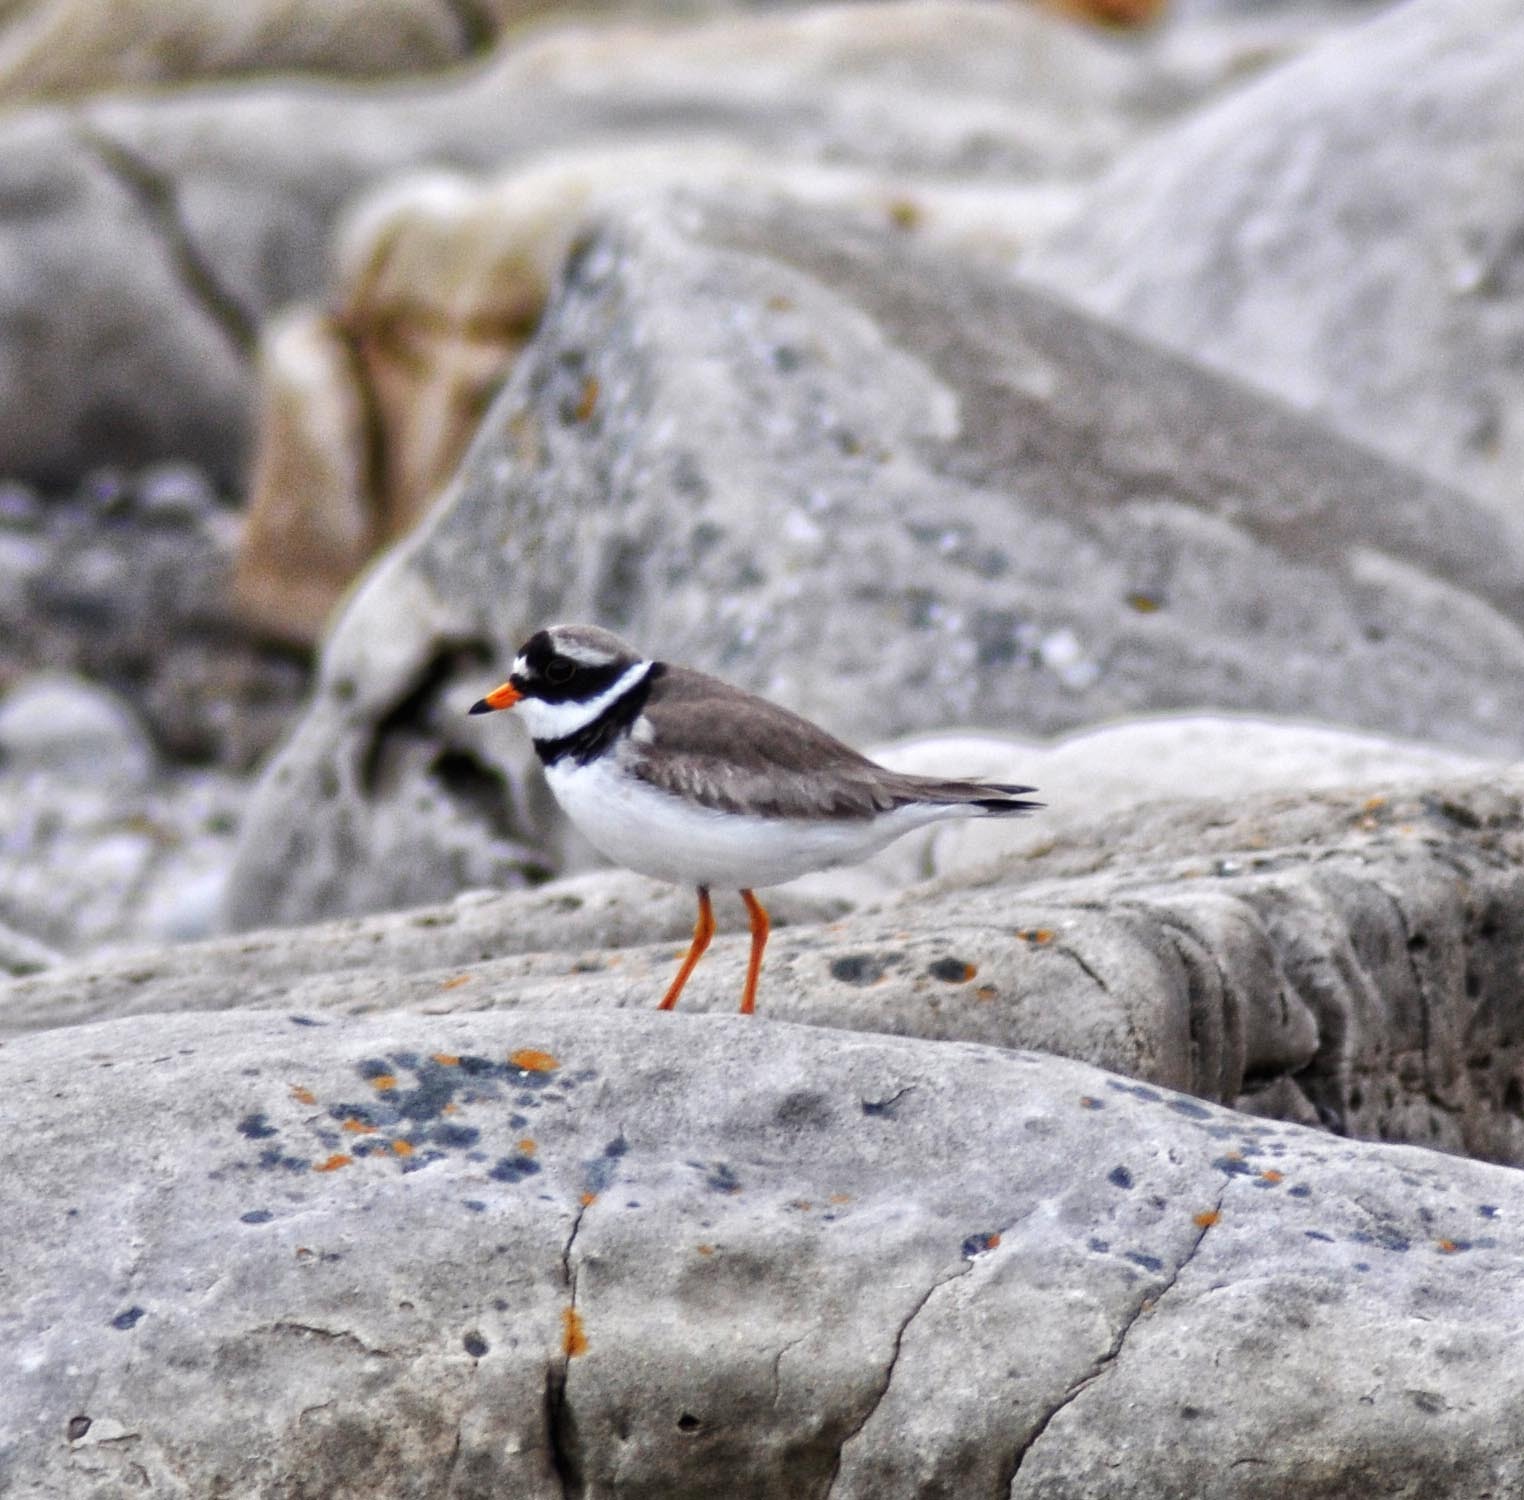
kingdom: Animalia
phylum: Chordata
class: Aves
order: Charadriiformes
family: Charadriidae
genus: Charadrius
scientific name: Charadrius hiaticula
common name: Common ringed plover
